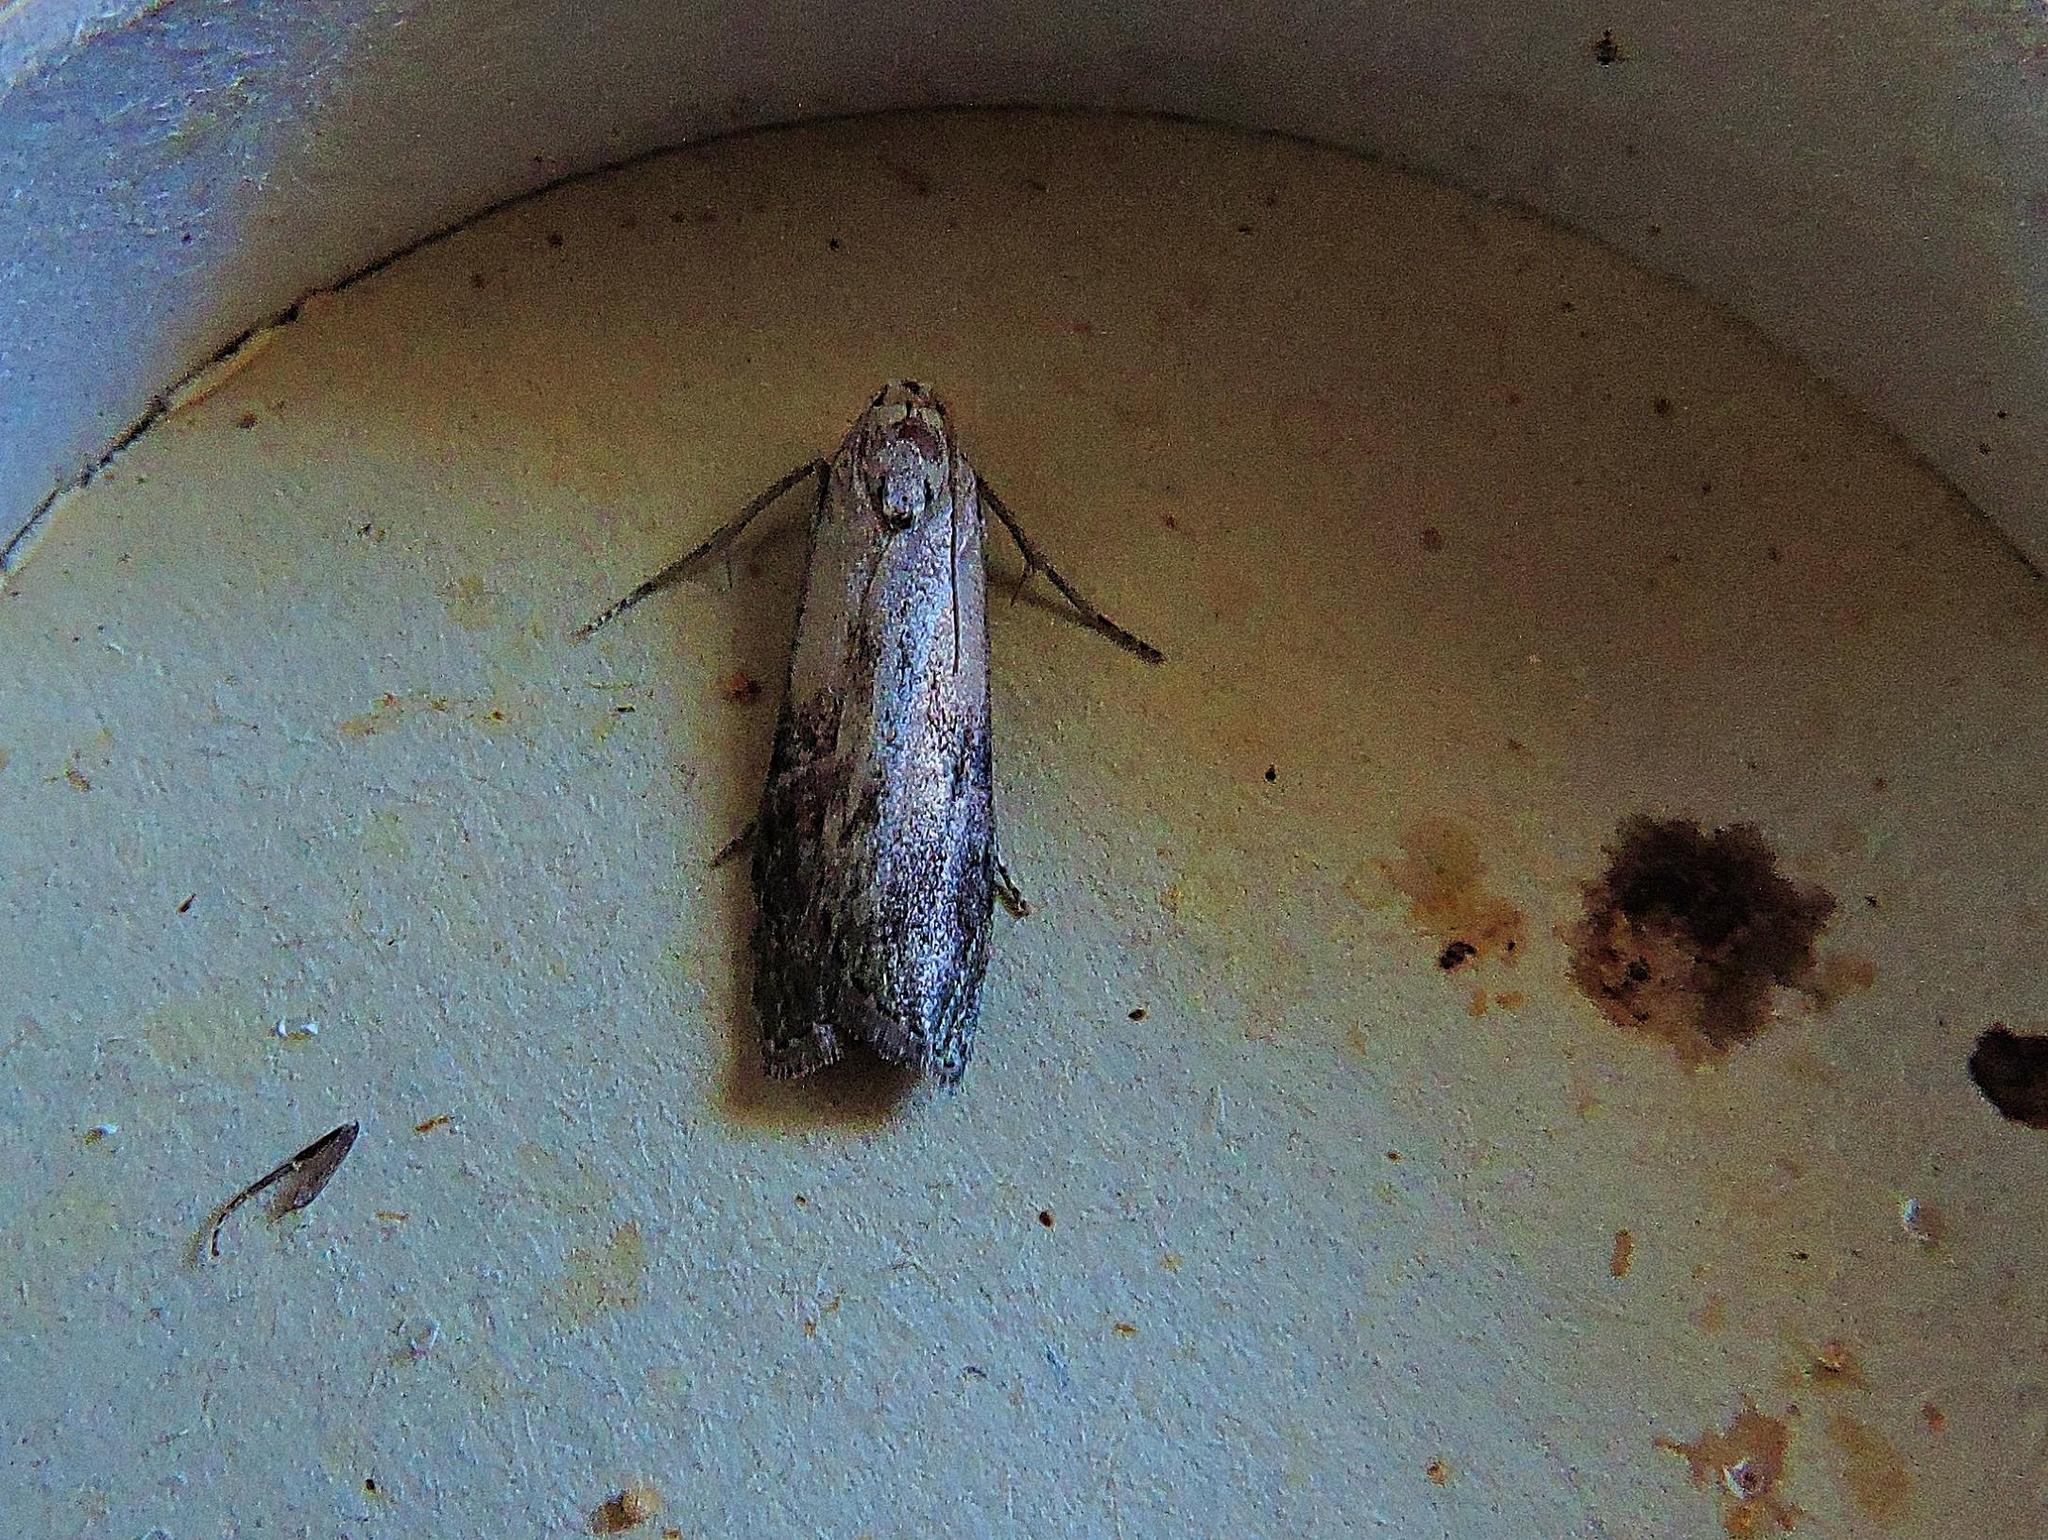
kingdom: Animalia
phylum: Arthropoda
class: Insecta
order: Lepidoptera
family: Pyralidae
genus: Aphomia
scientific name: Aphomia sociella
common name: Bee moth
